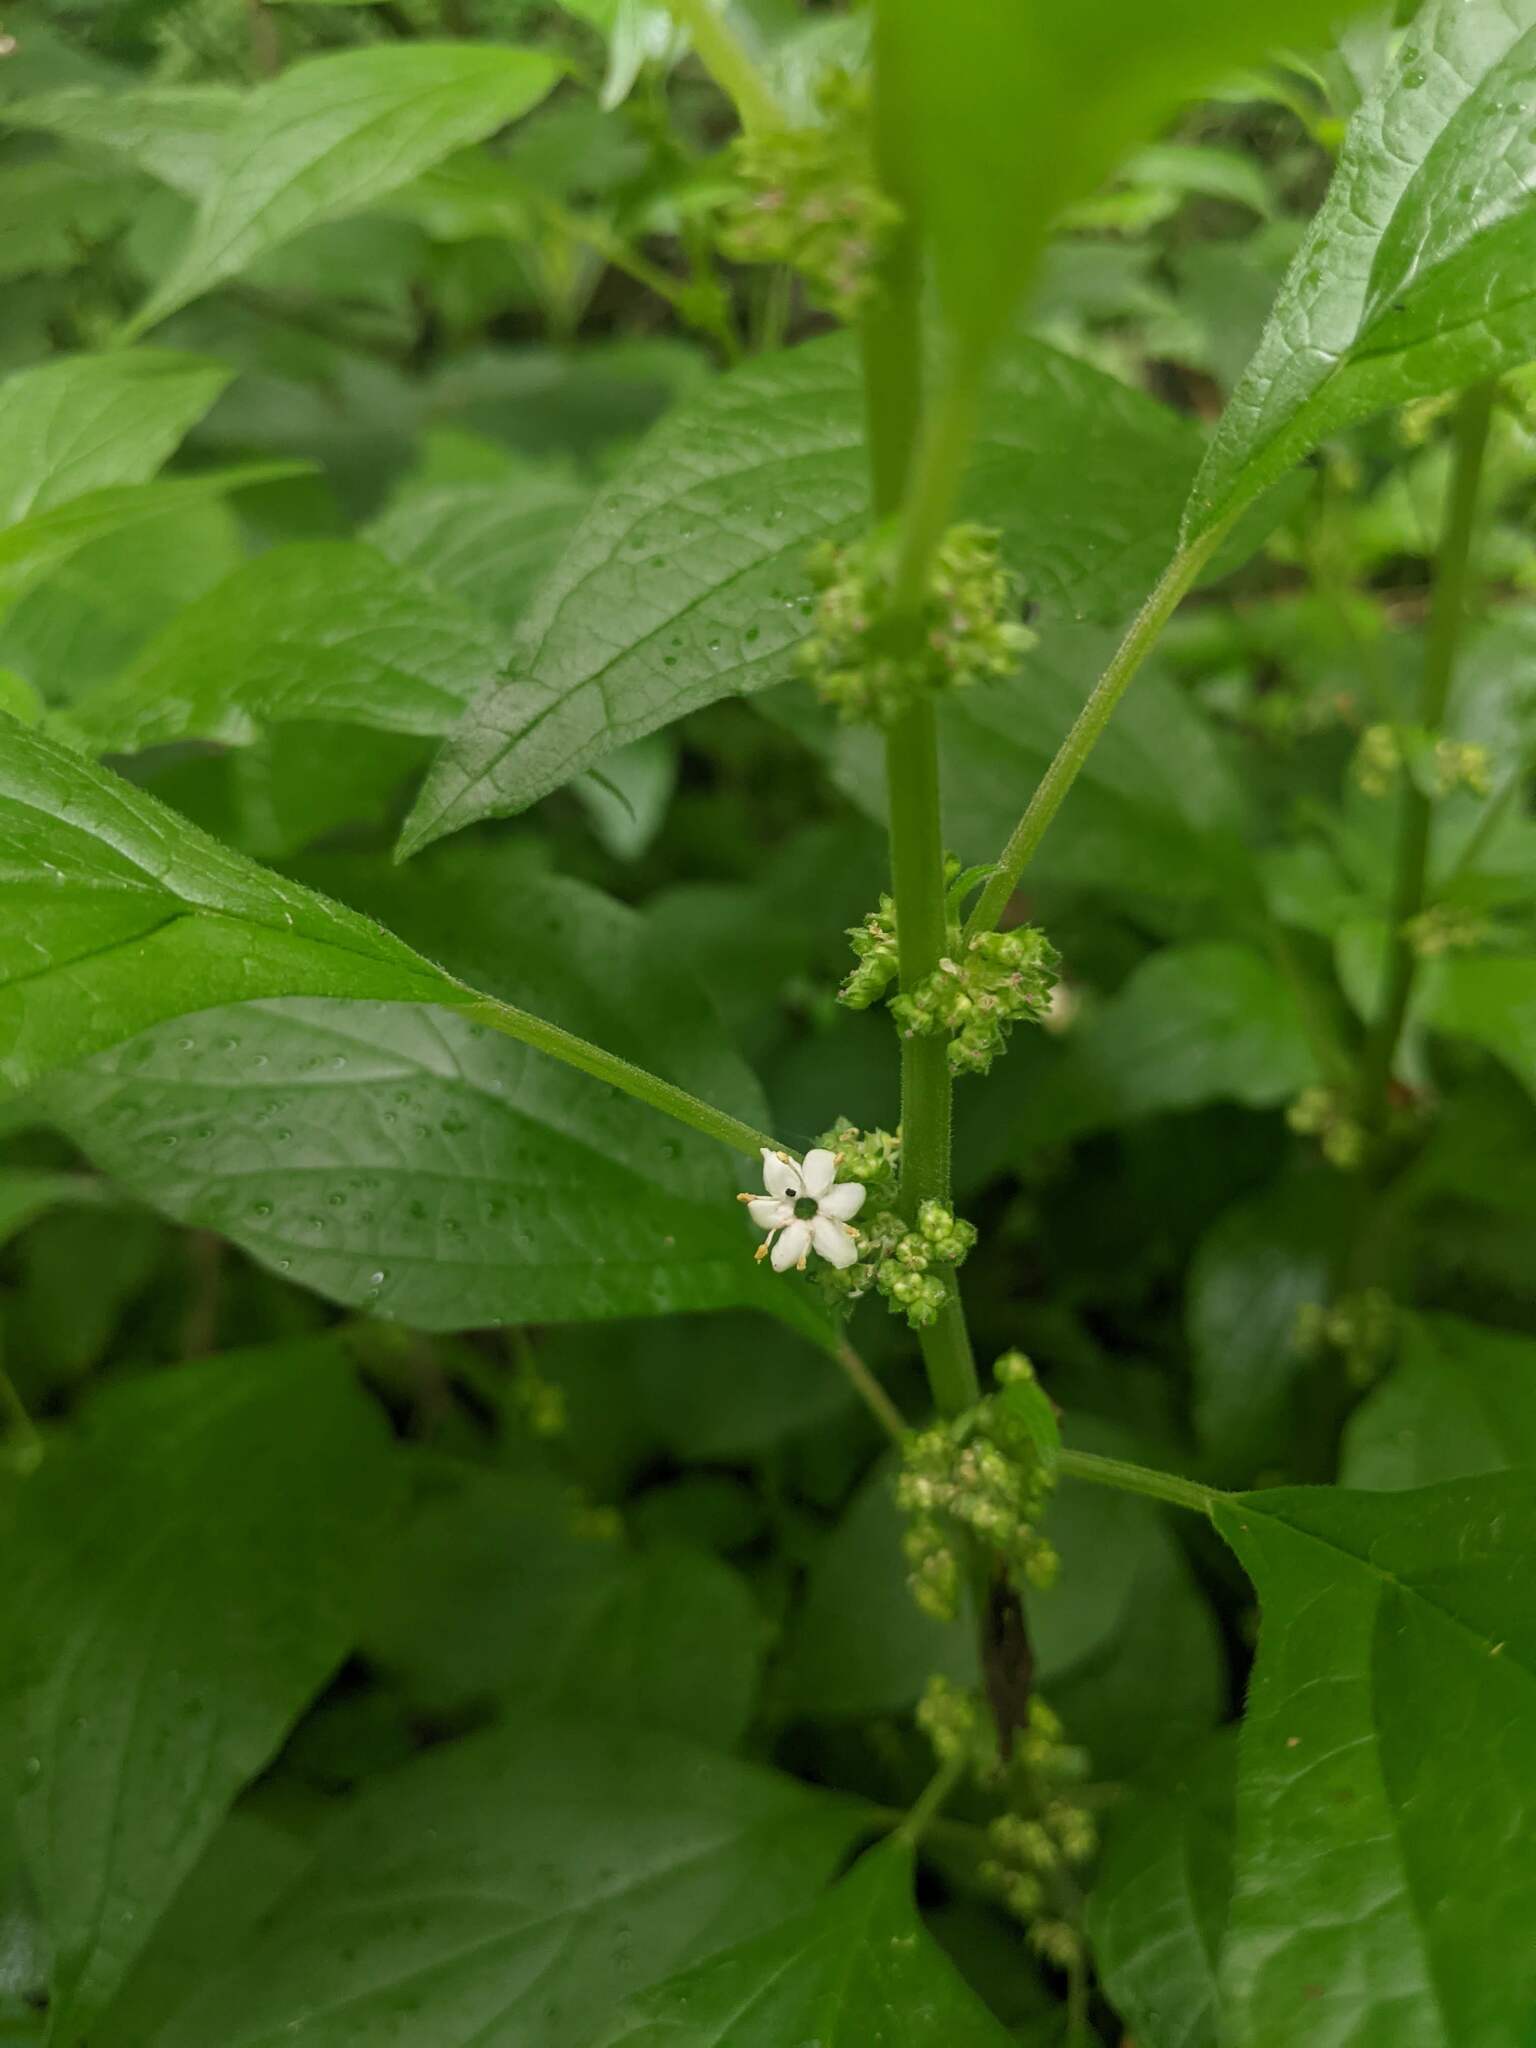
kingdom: Plantae
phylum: Tracheophyta
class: Magnoliopsida
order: Rosales
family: Urticaceae
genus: Parietaria
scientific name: Parietaria officinalis
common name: Eastern pellitory-of-the-wall
